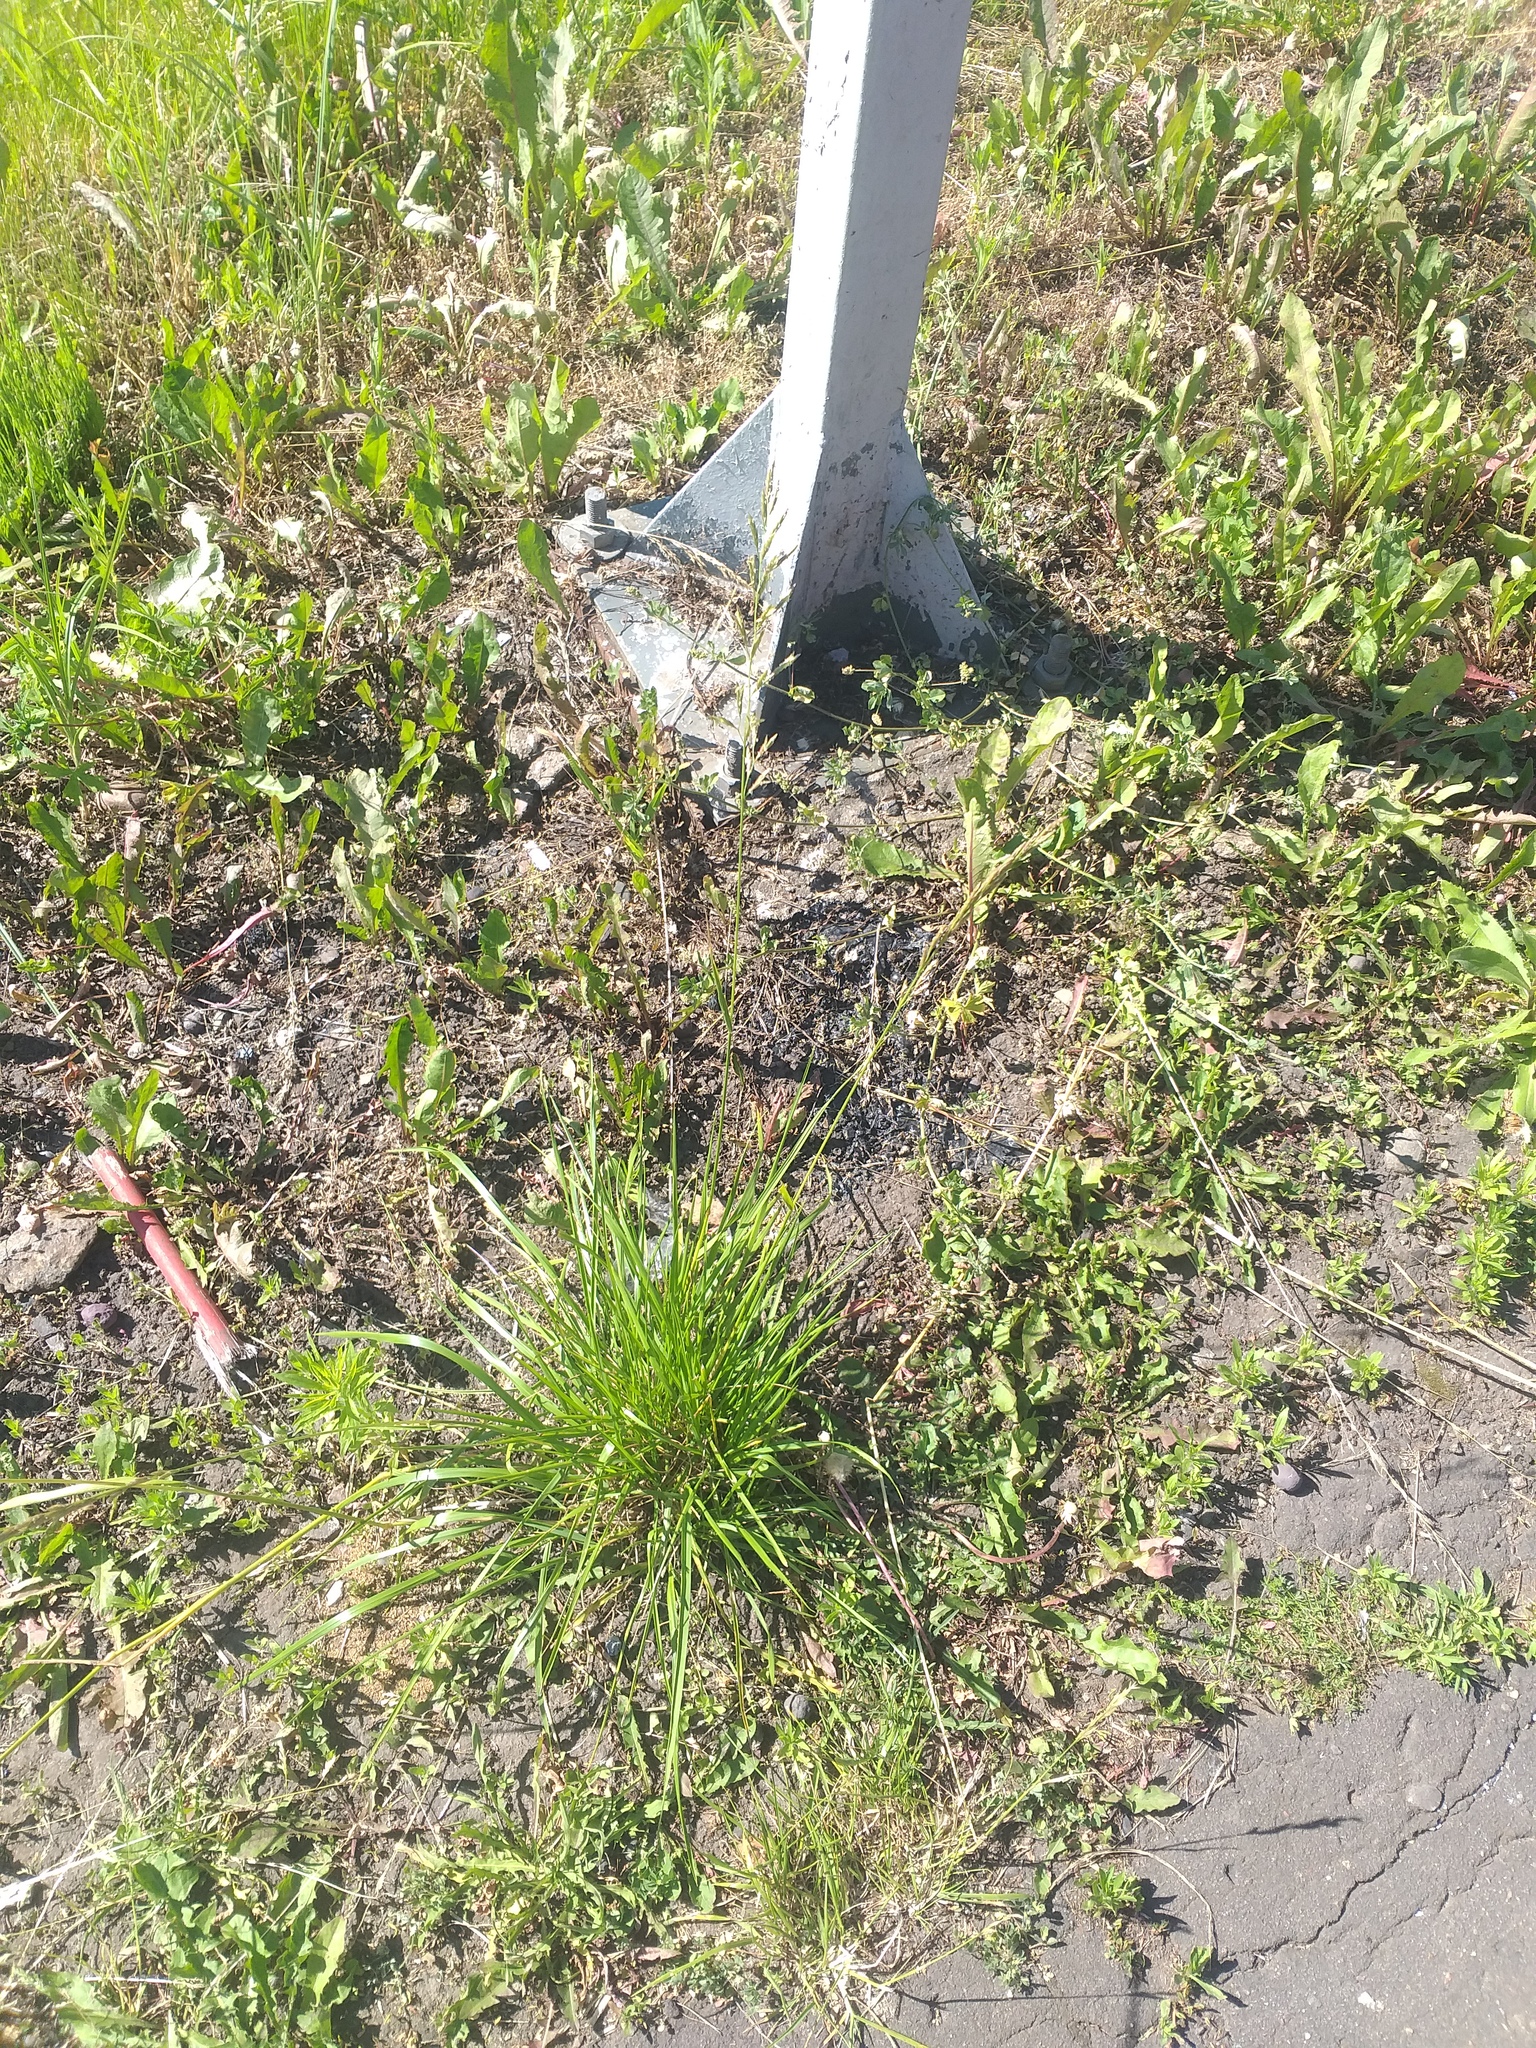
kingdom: Plantae
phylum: Tracheophyta
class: Liliopsida
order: Poales
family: Poaceae
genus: Lolium
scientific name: Lolium pratense
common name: Dover grass
